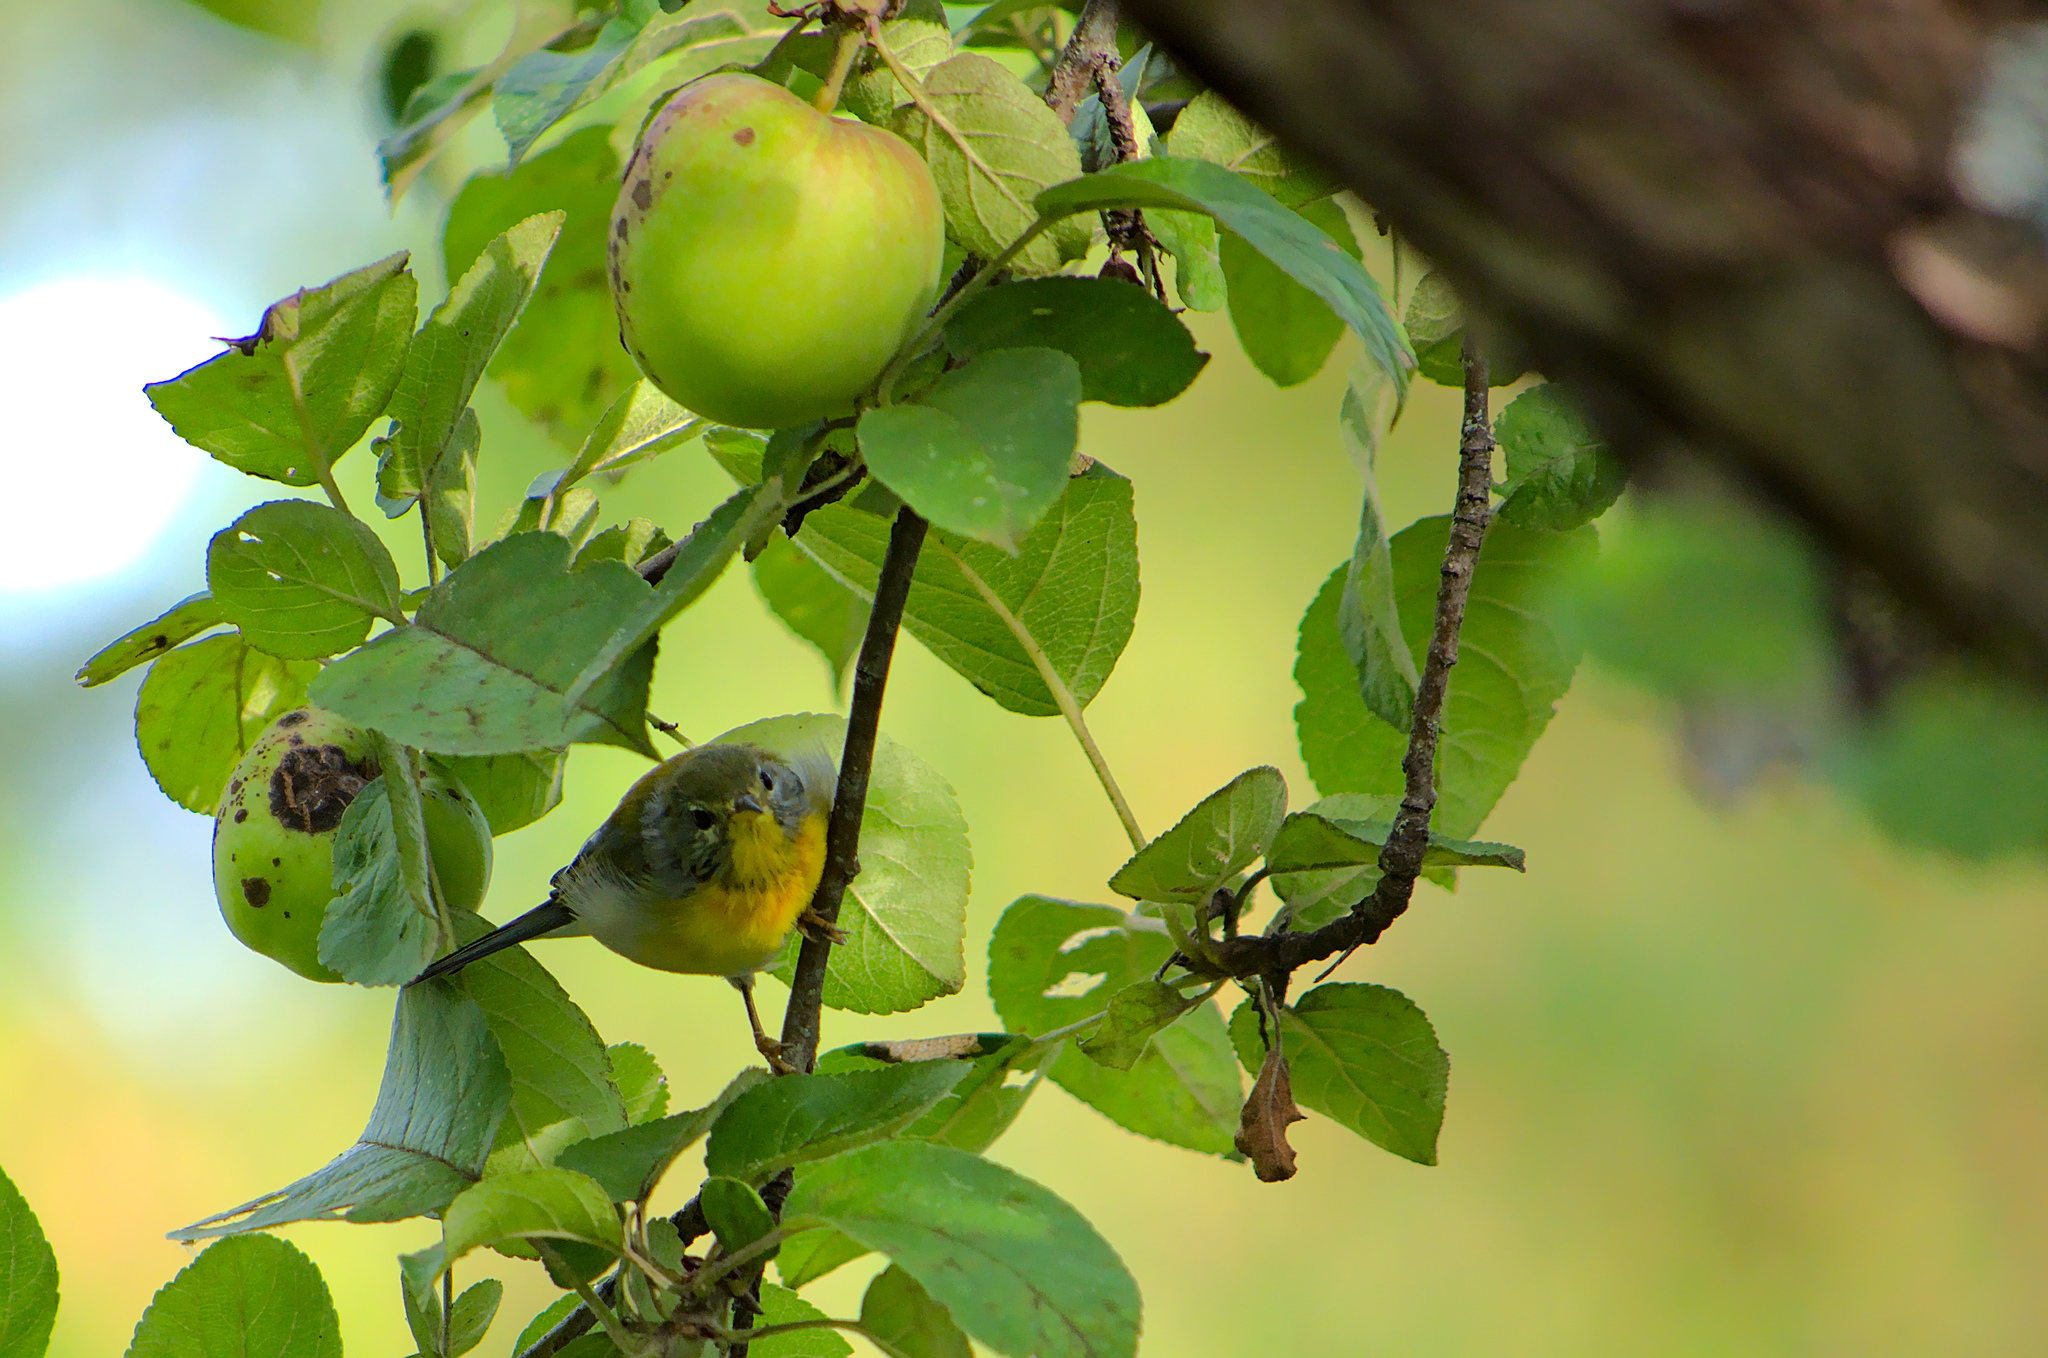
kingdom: Animalia
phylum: Chordata
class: Aves
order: Passeriformes
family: Parulidae
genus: Setophaga
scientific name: Setophaga americana
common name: Northern parula
